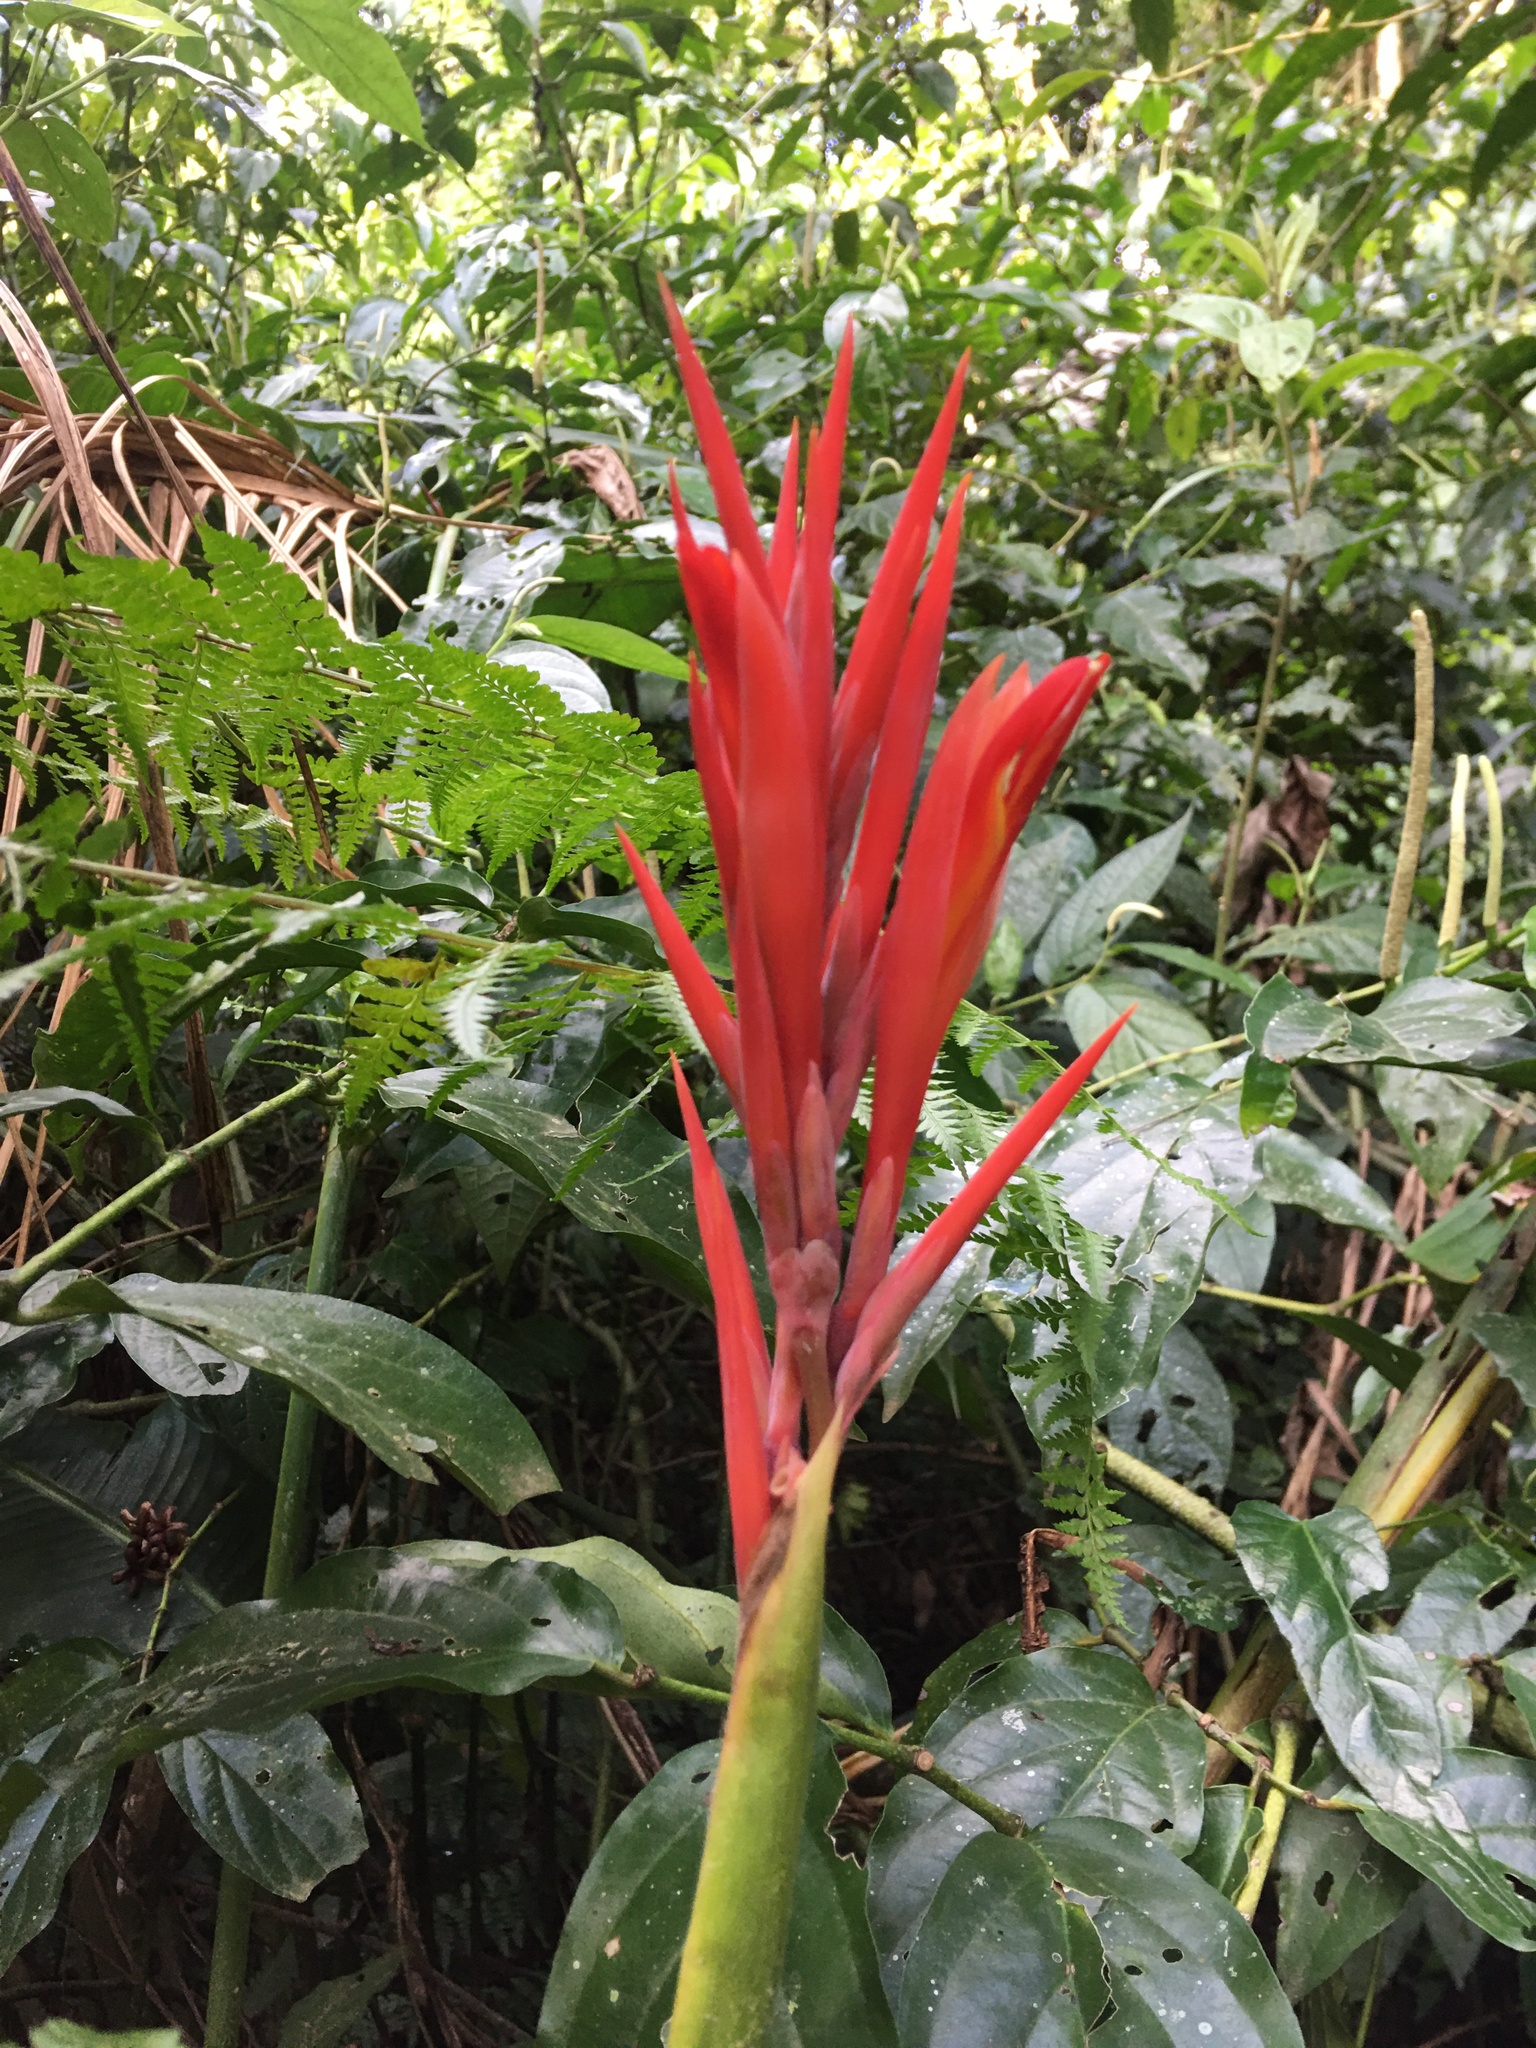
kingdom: Plantae
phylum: Tracheophyta
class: Liliopsida
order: Zingiberales
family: Cannaceae
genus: Canna
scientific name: Canna indica
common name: Indian shot
